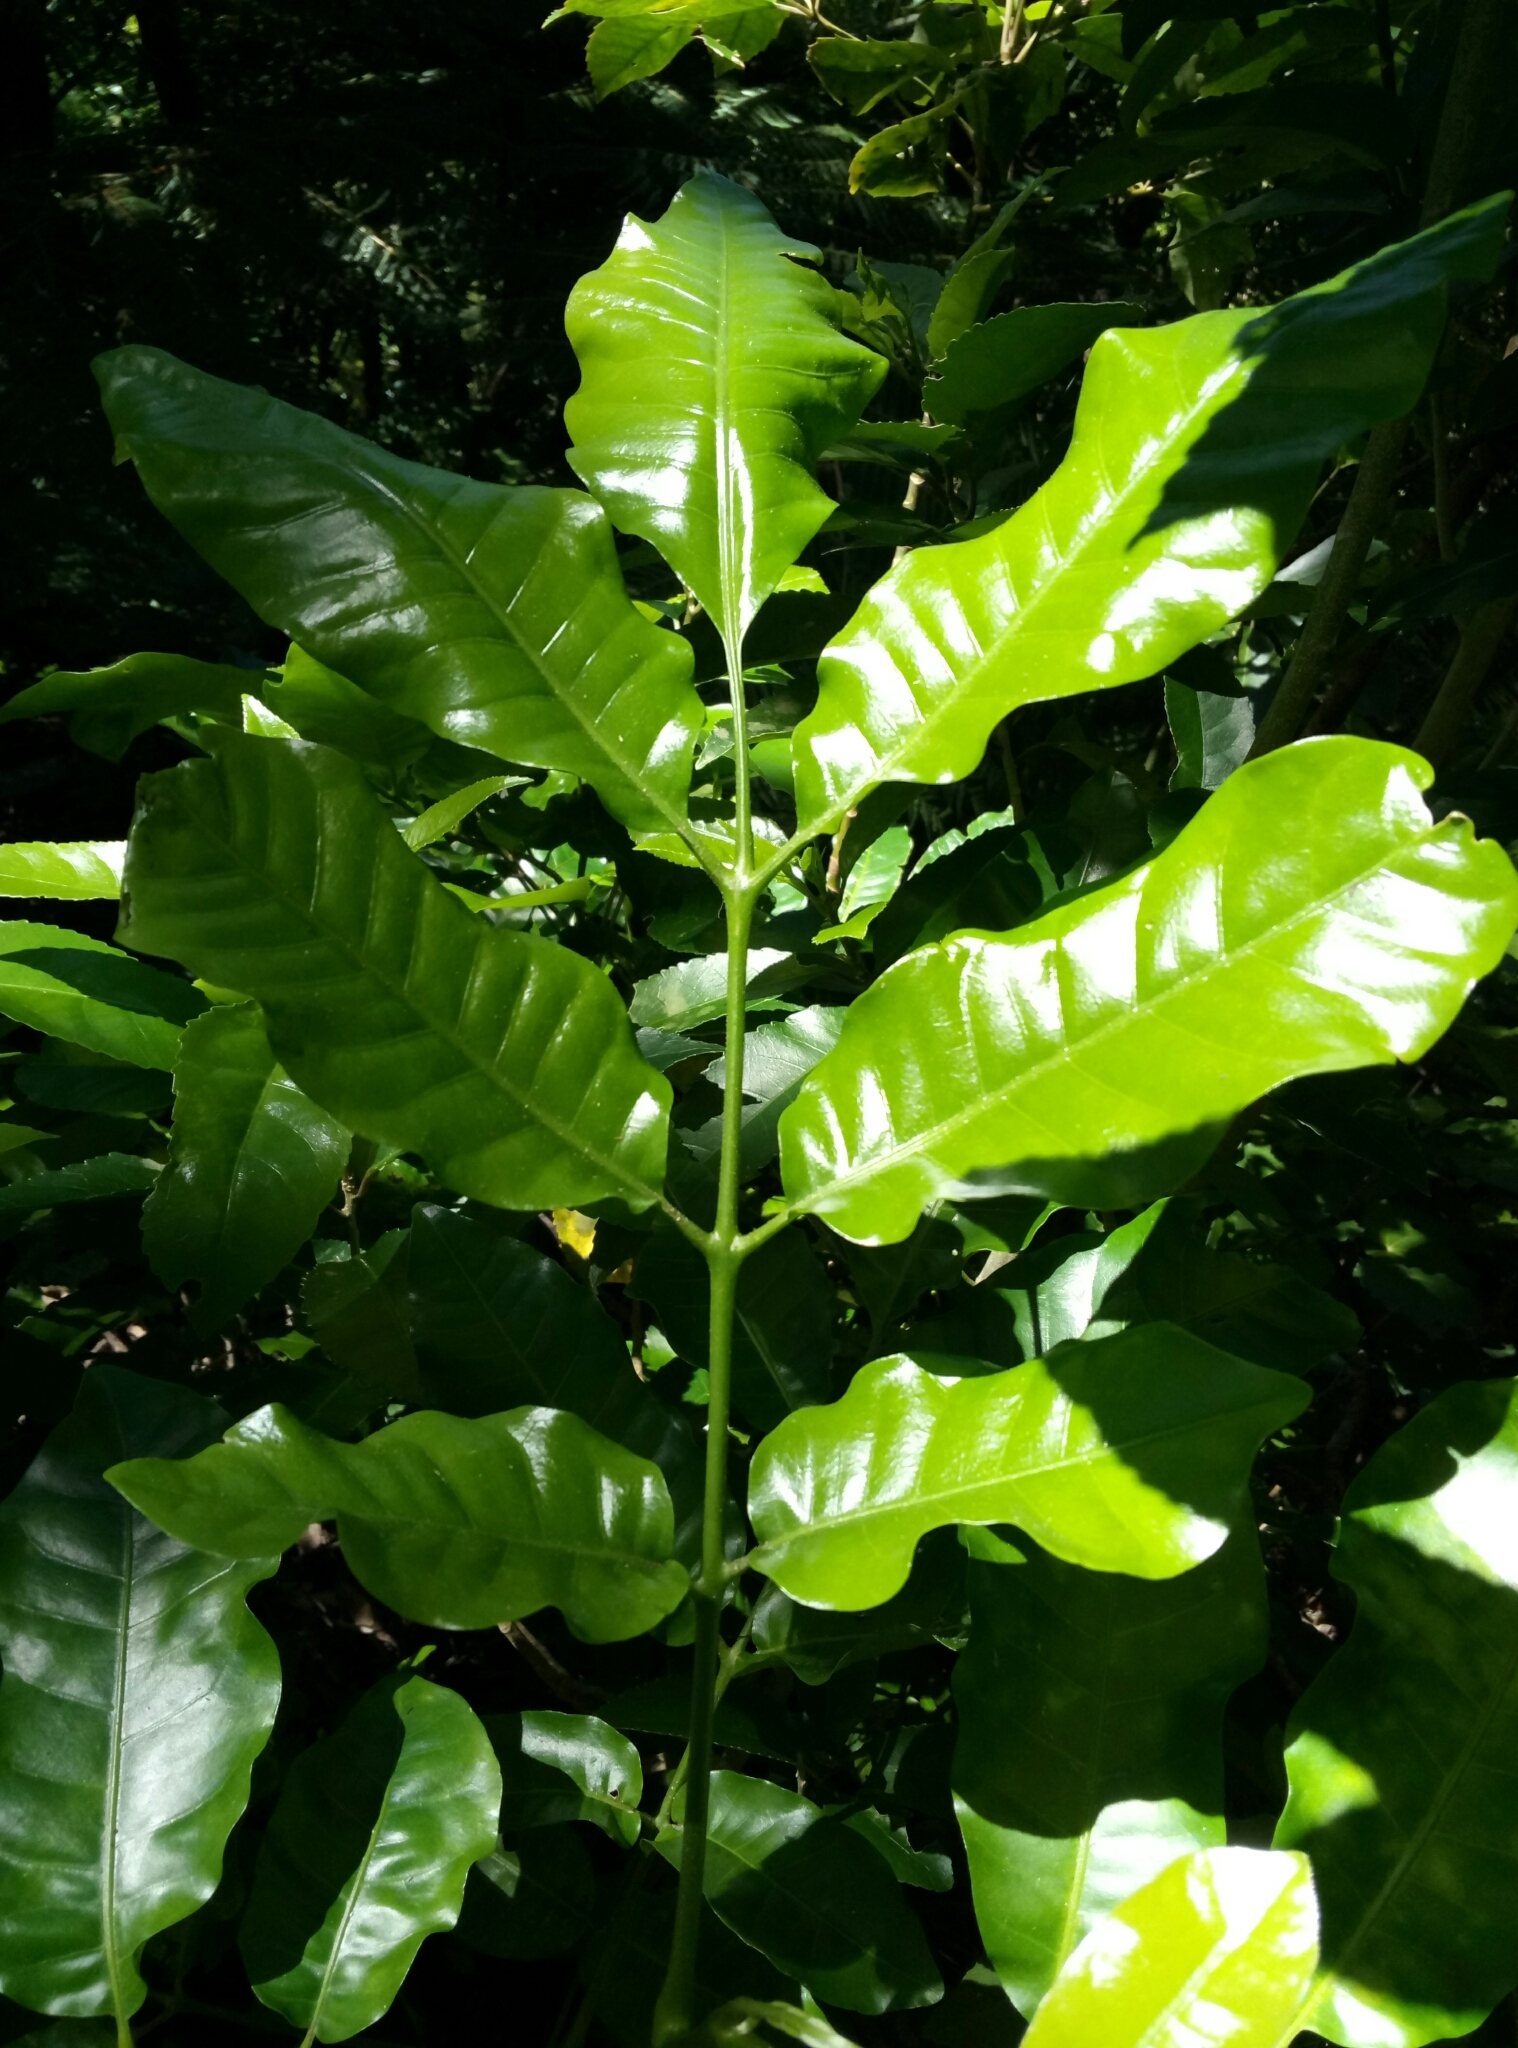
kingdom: Plantae
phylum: Tracheophyta
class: Magnoliopsida
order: Sapindales
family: Meliaceae
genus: Didymocheton
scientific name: Didymocheton spectabilis
